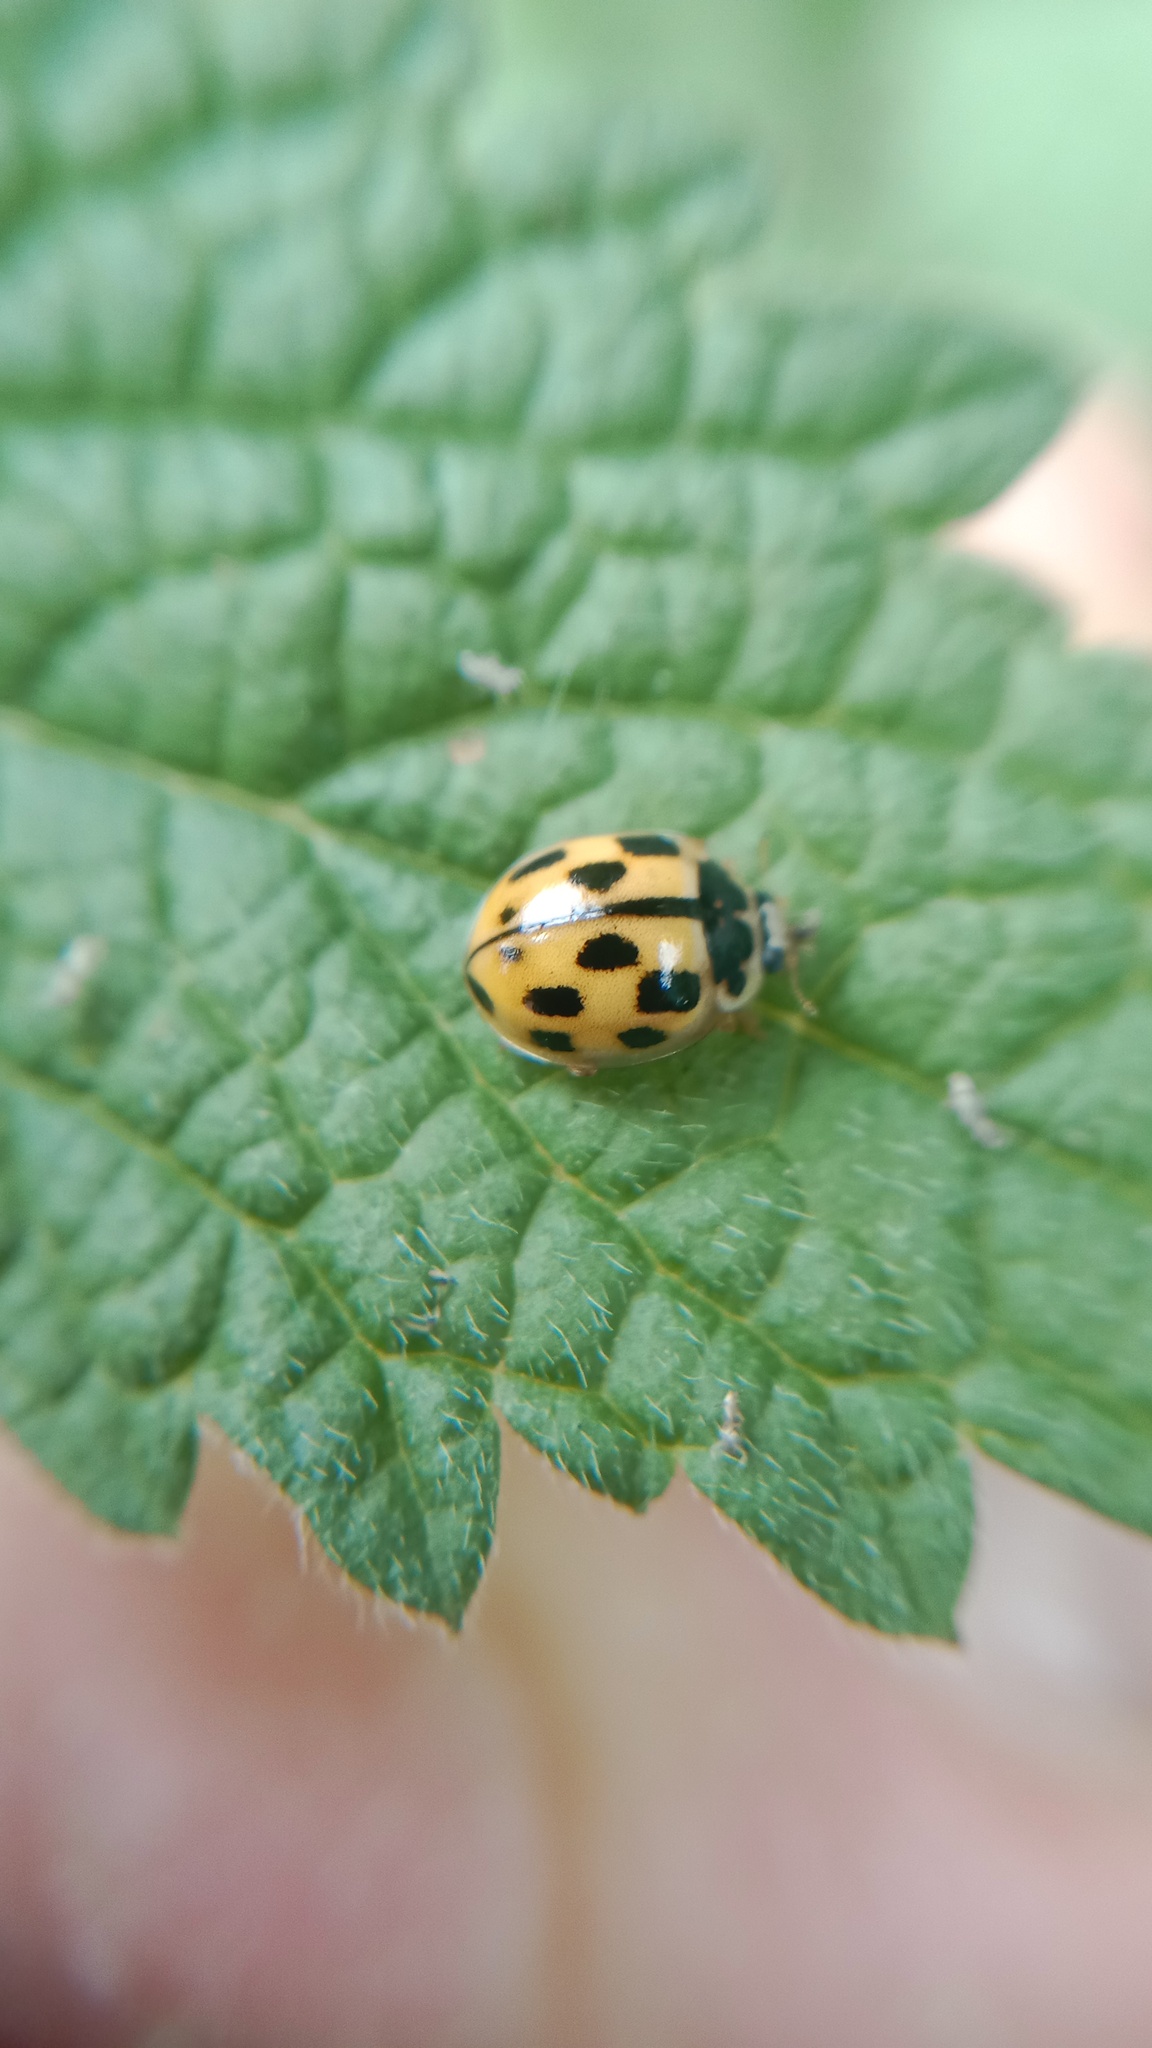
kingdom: Animalia
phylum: Arthropoda
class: Insecta
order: Coleoptera
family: Coccinellidae
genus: Propylaea
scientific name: Propylaea quatuordecimpunctata
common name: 14-spotted ladybird beetle
